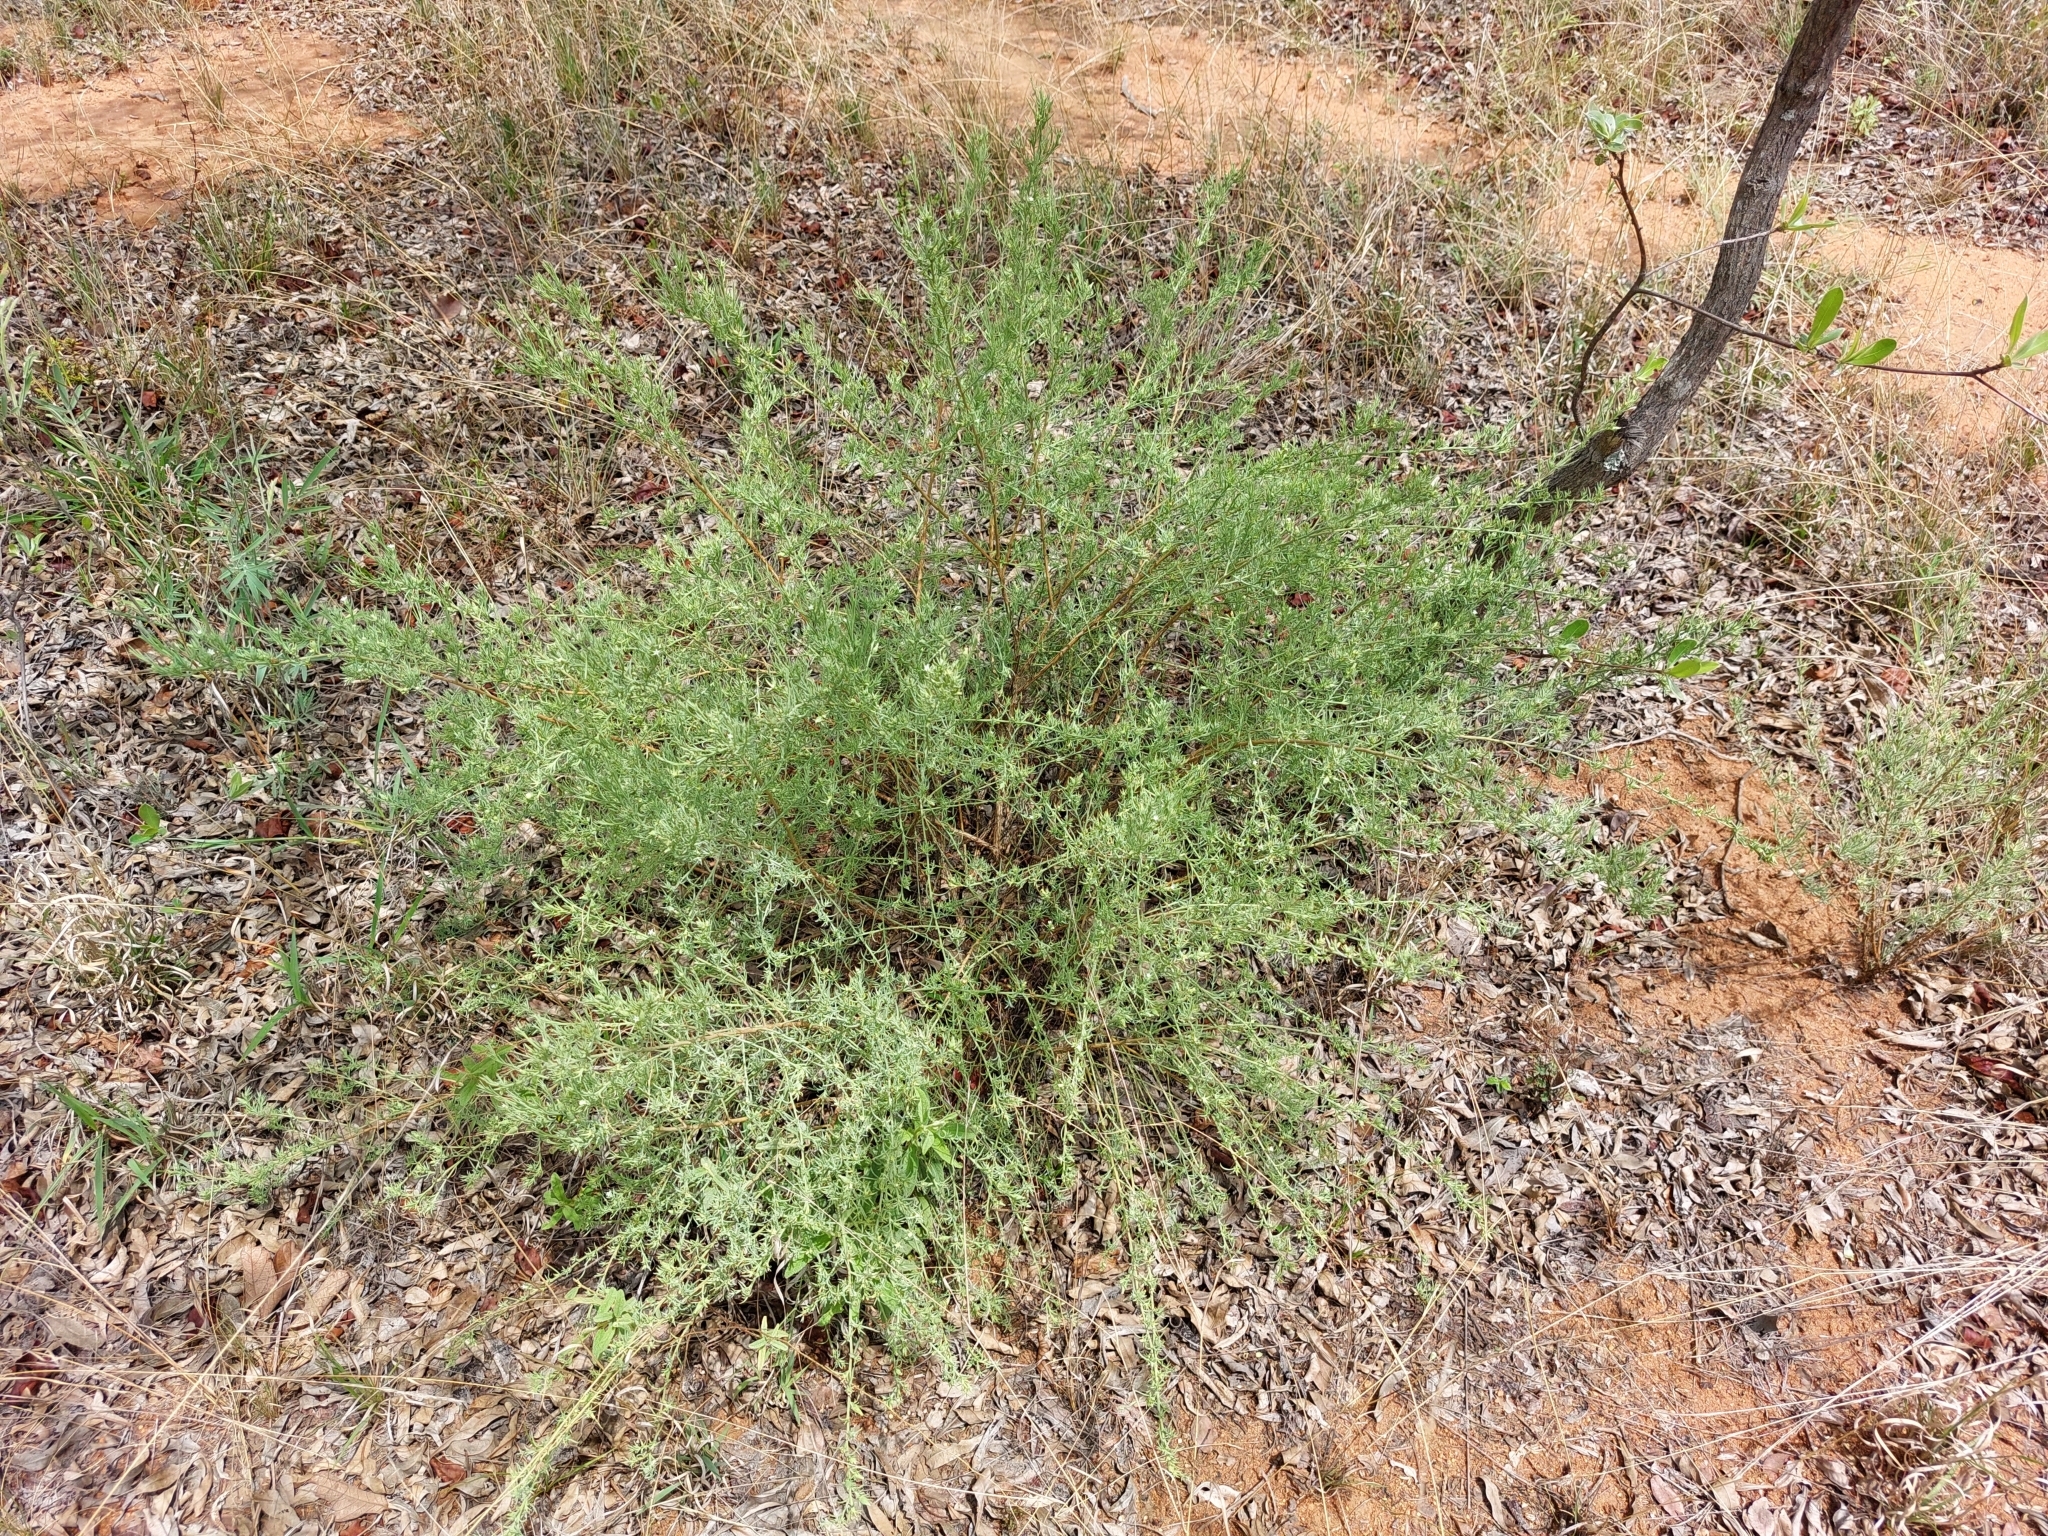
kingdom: Plantae
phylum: Tracheophyta
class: Magnoliopsida
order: Santalales
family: Thesiaceae
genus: Thesium
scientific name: Thesium celatum
